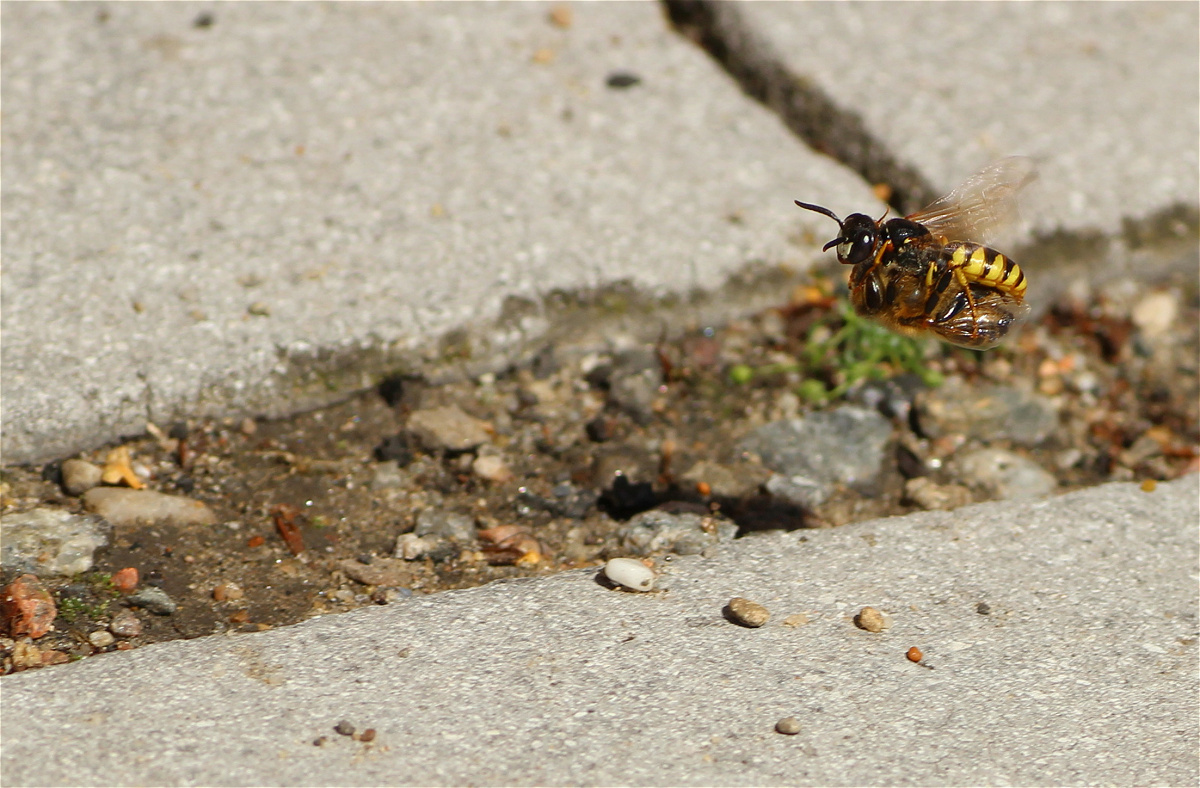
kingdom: Animalia
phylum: Arthropoda
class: Insecta
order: Hymenoptera
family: Crabronidae
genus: Philanthus
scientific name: Philanthus triangulum
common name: Bee wolf
